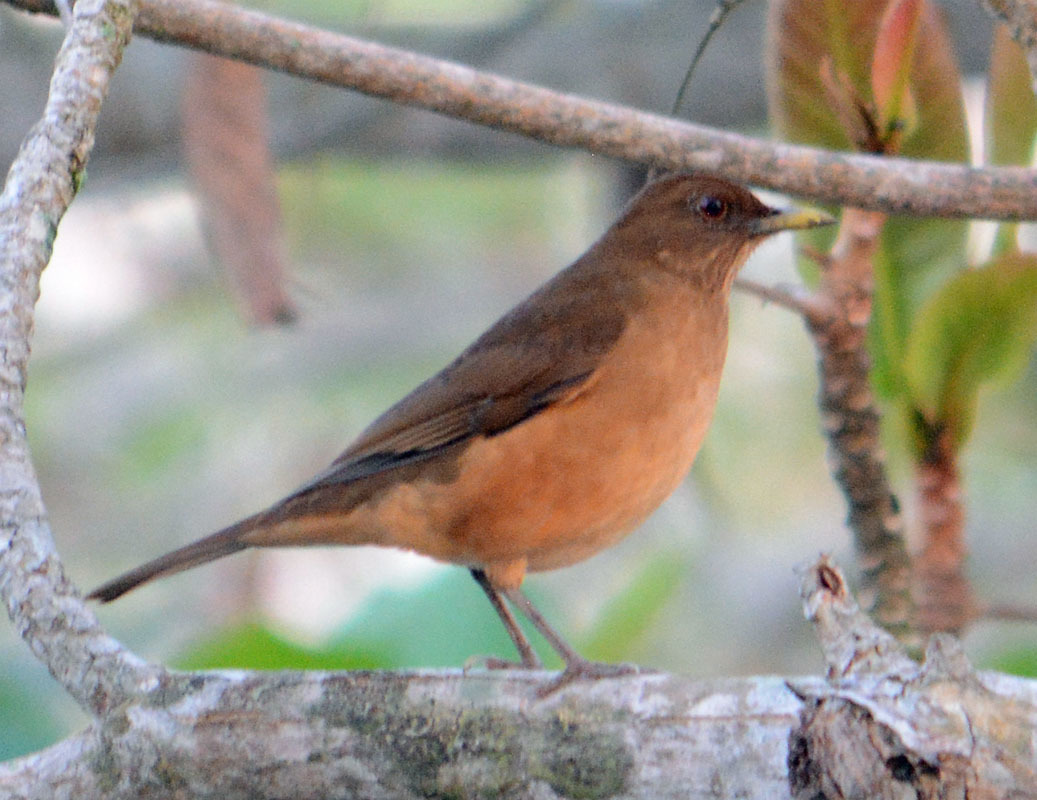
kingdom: Animalia
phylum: Chordata
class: Aves
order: Passeriformes
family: Turdidae
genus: Turdus
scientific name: Turdus grayi
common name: Clay-colored thrush
